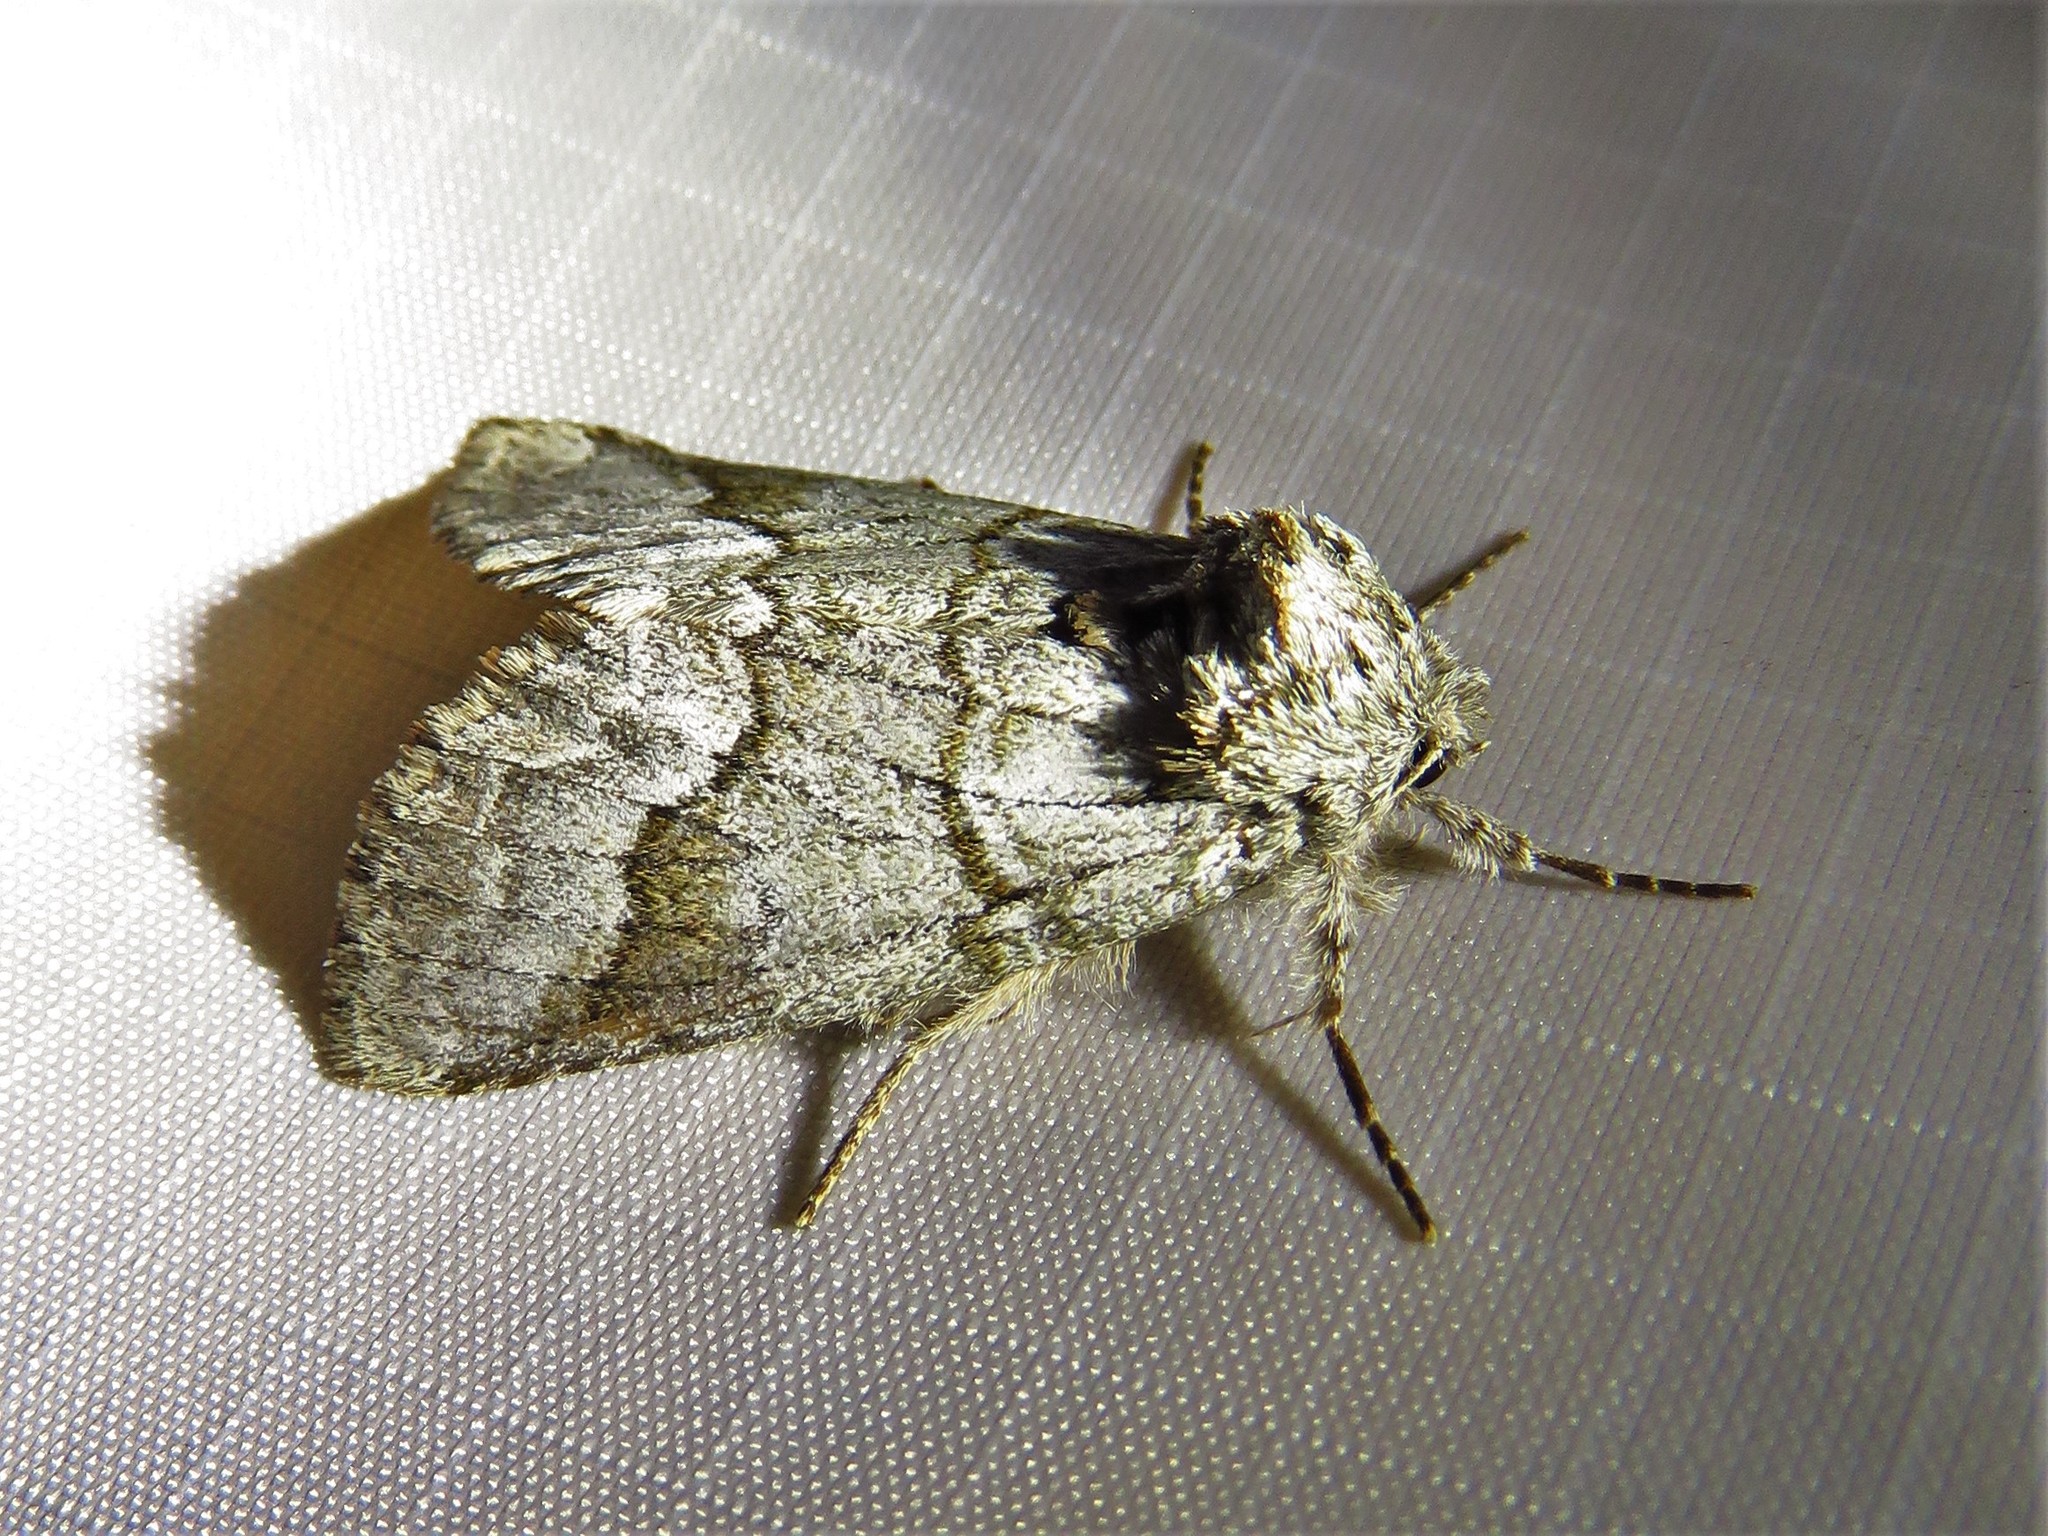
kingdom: Animalia
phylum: Arthropoda
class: Insecta
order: Lepidoptera
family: Notodontidae
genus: Lochmaeus
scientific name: Lochmaeus bilineata
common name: Double-lined prominent
